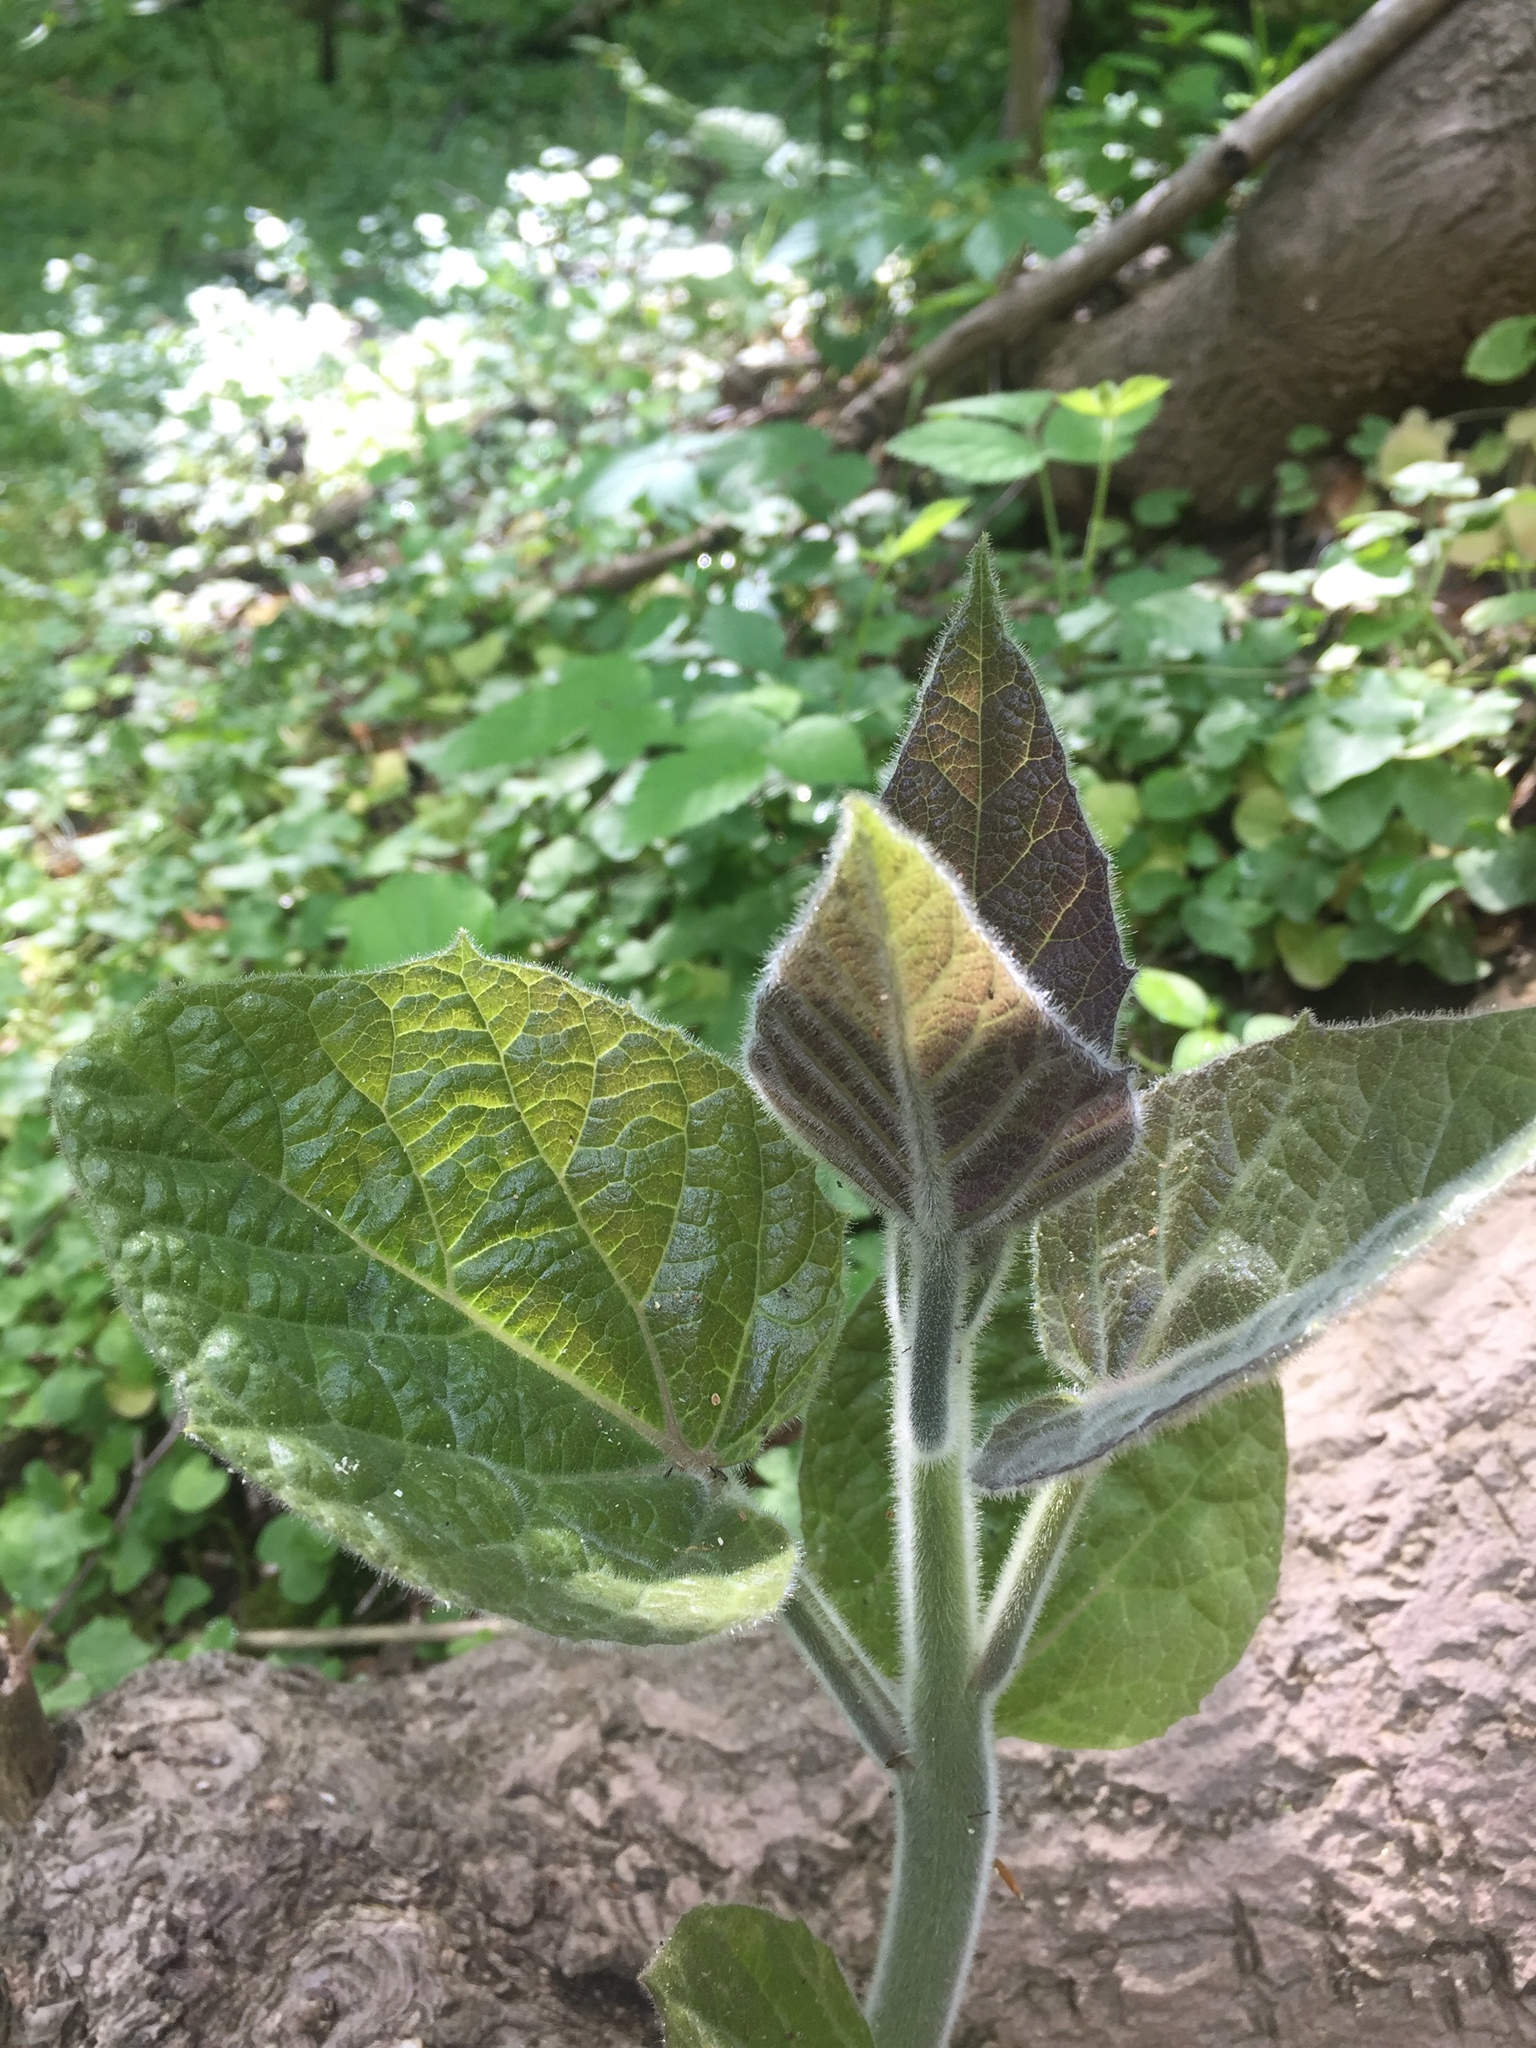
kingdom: Plantae
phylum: Tracheophyta
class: Magnoliopsida
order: Lamiales
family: Paulowniaceae
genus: Paulownia
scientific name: Paulownia tomentosa
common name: Foxglove-tree
